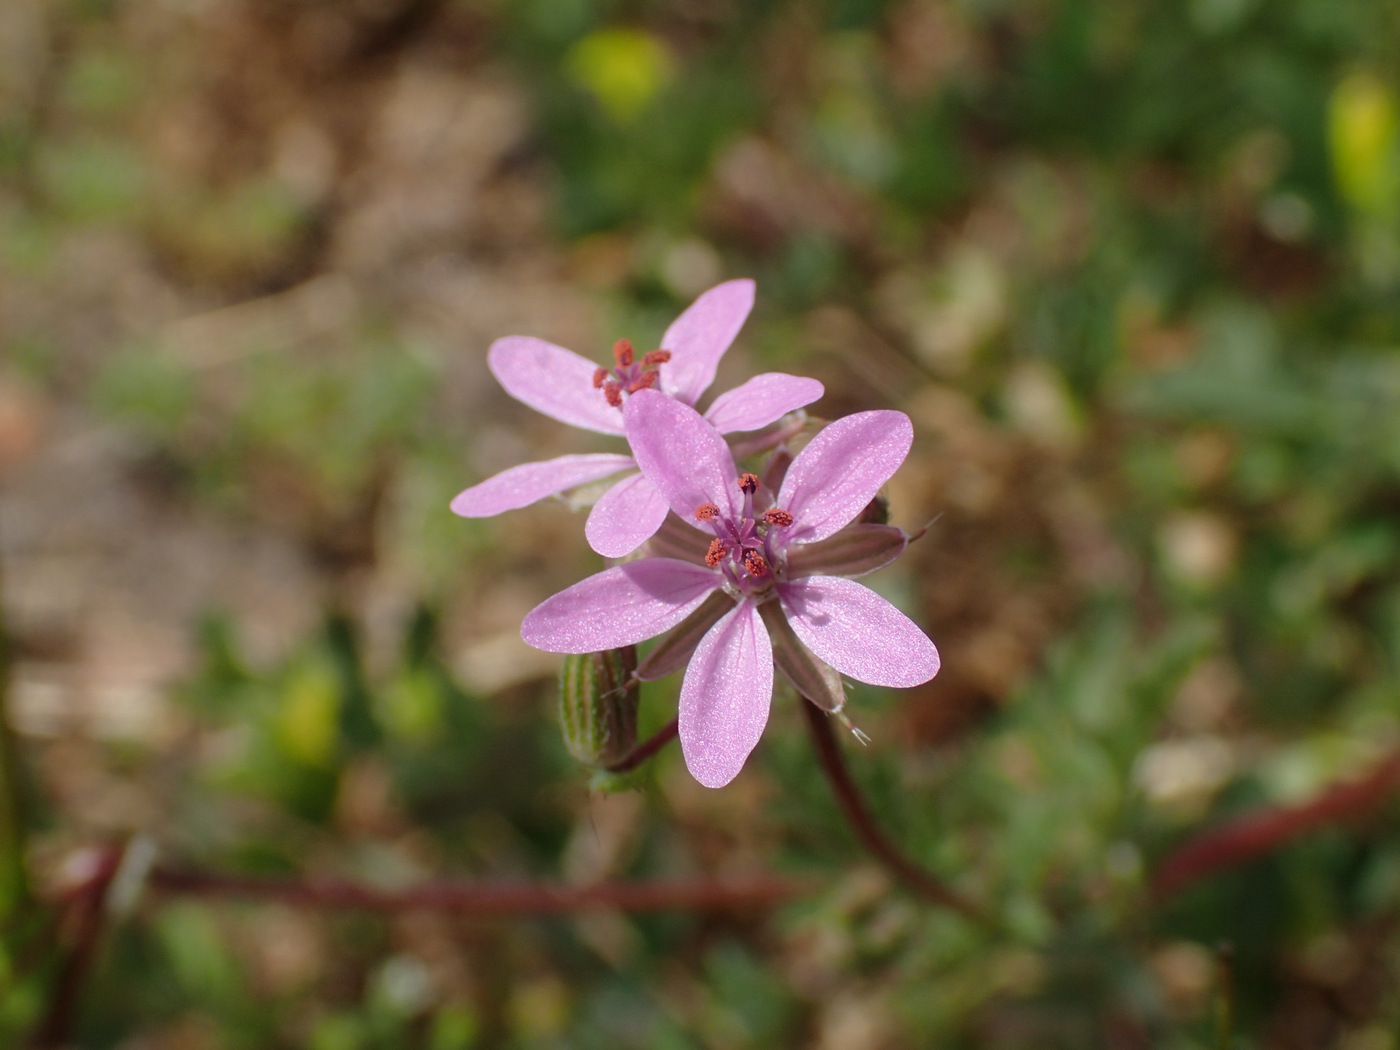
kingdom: Plantae
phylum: Tracheophyta
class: Magnoliopsida
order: Geraniales
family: Geraniaceae
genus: Erodium
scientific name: Erodium cicutarium
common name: Common stork's-bill
